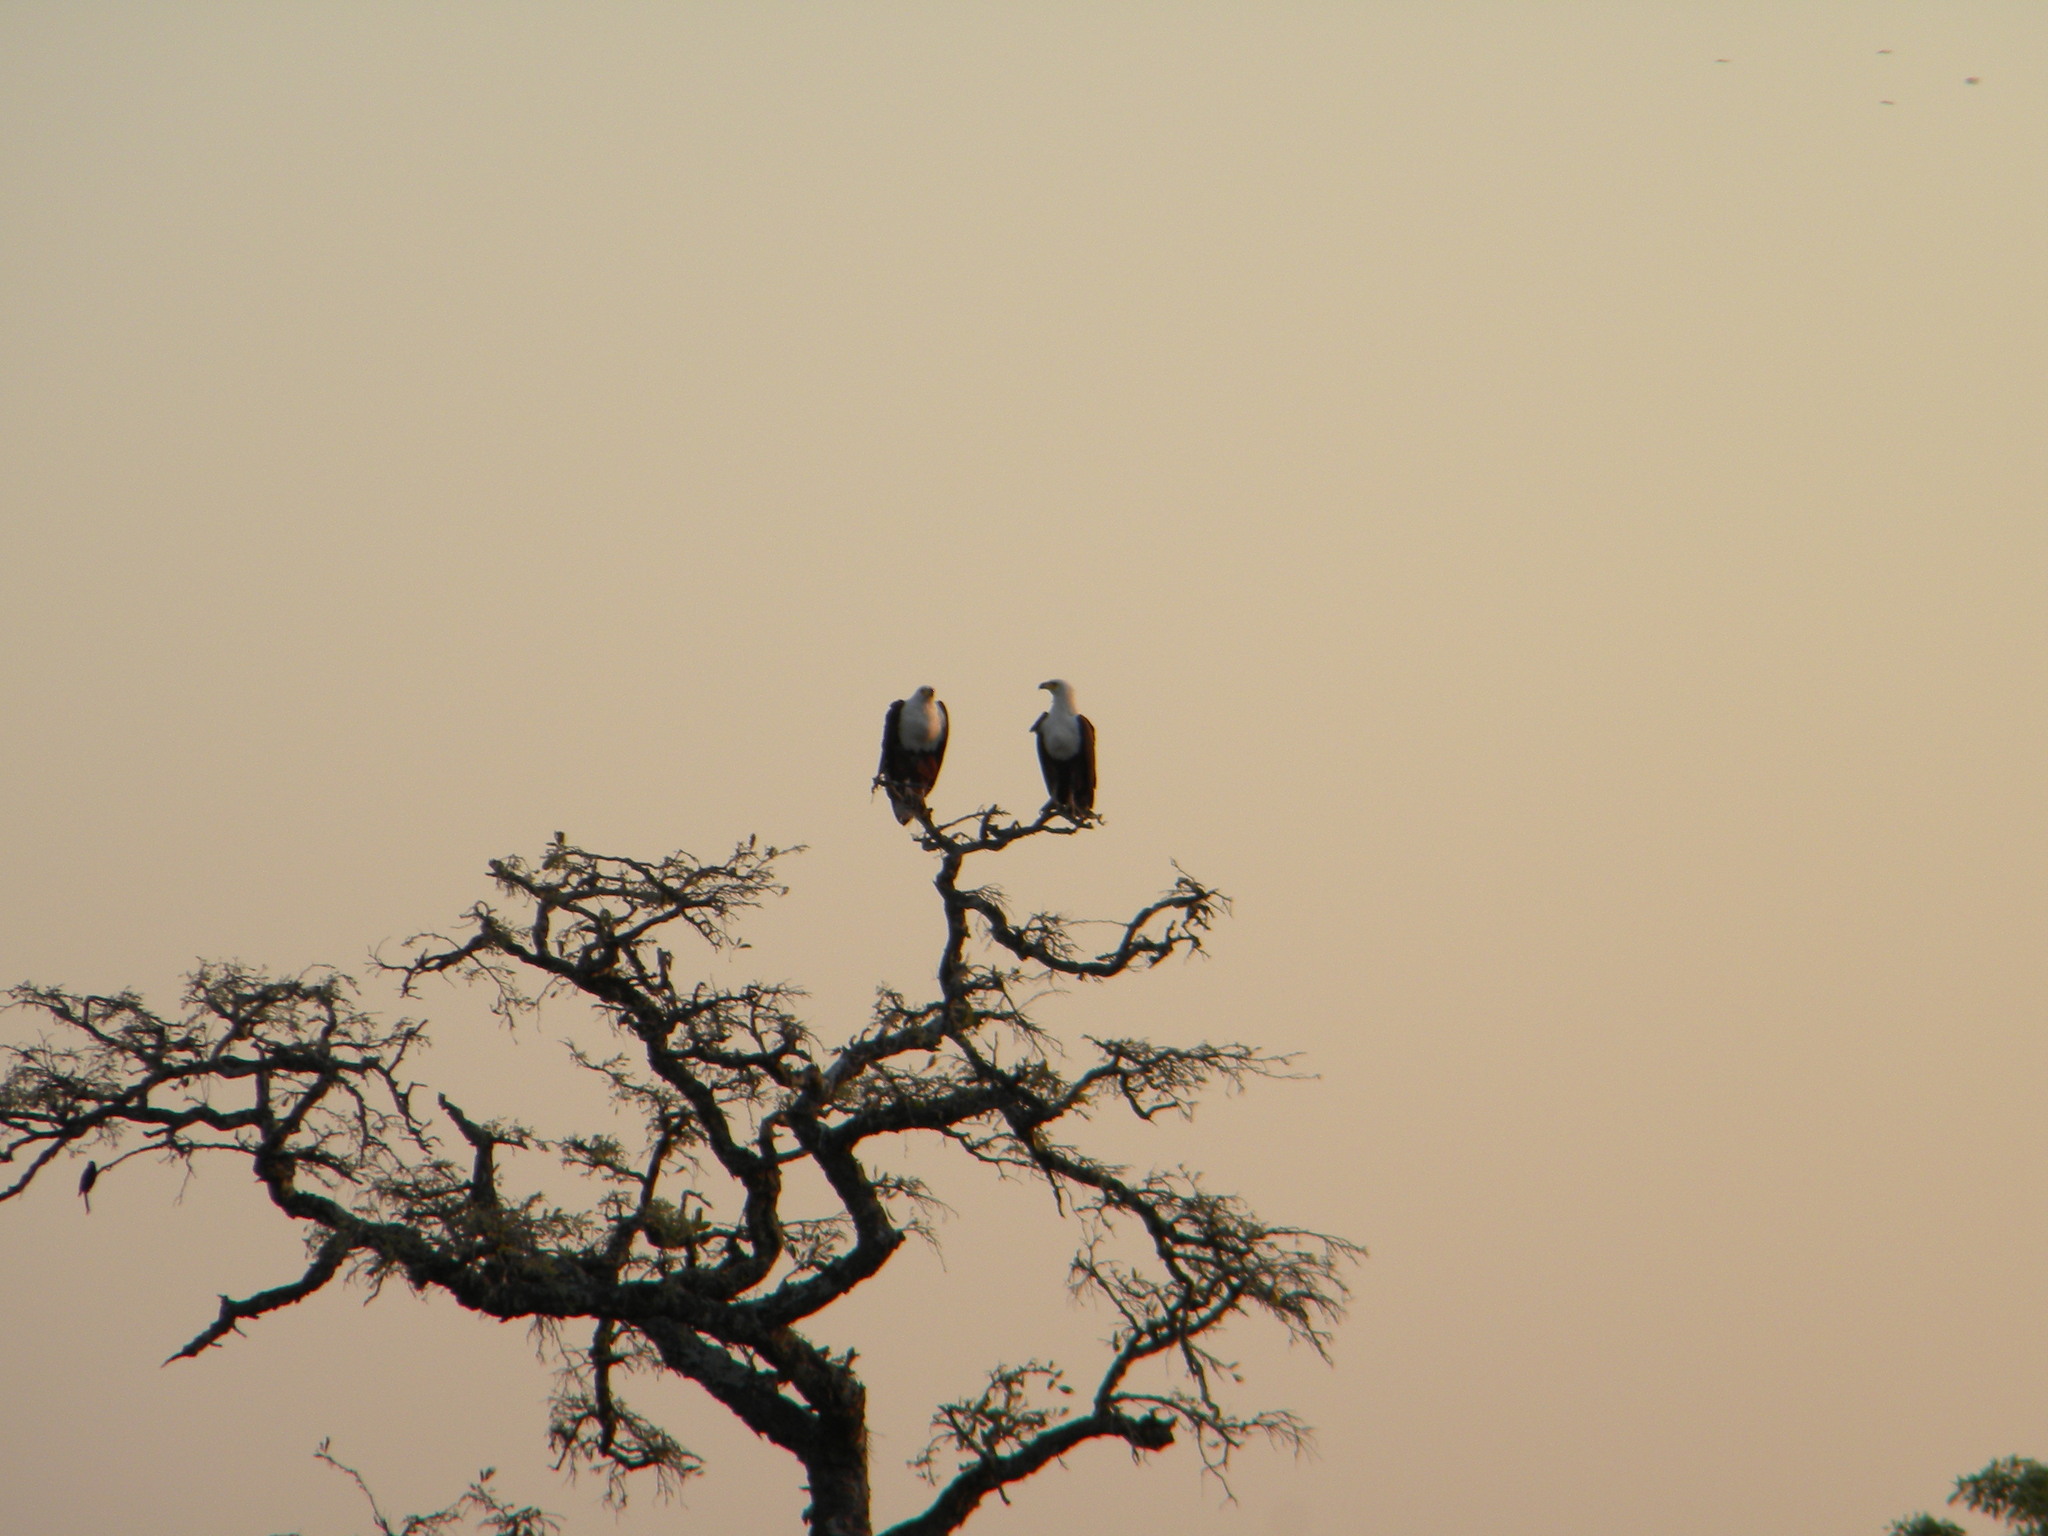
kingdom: Animalia
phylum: Chordata
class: Aves
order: Accipitriformes
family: Accipitridae
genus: Haliaeetus
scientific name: Haliaeetus vocifer
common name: African fish eagle
